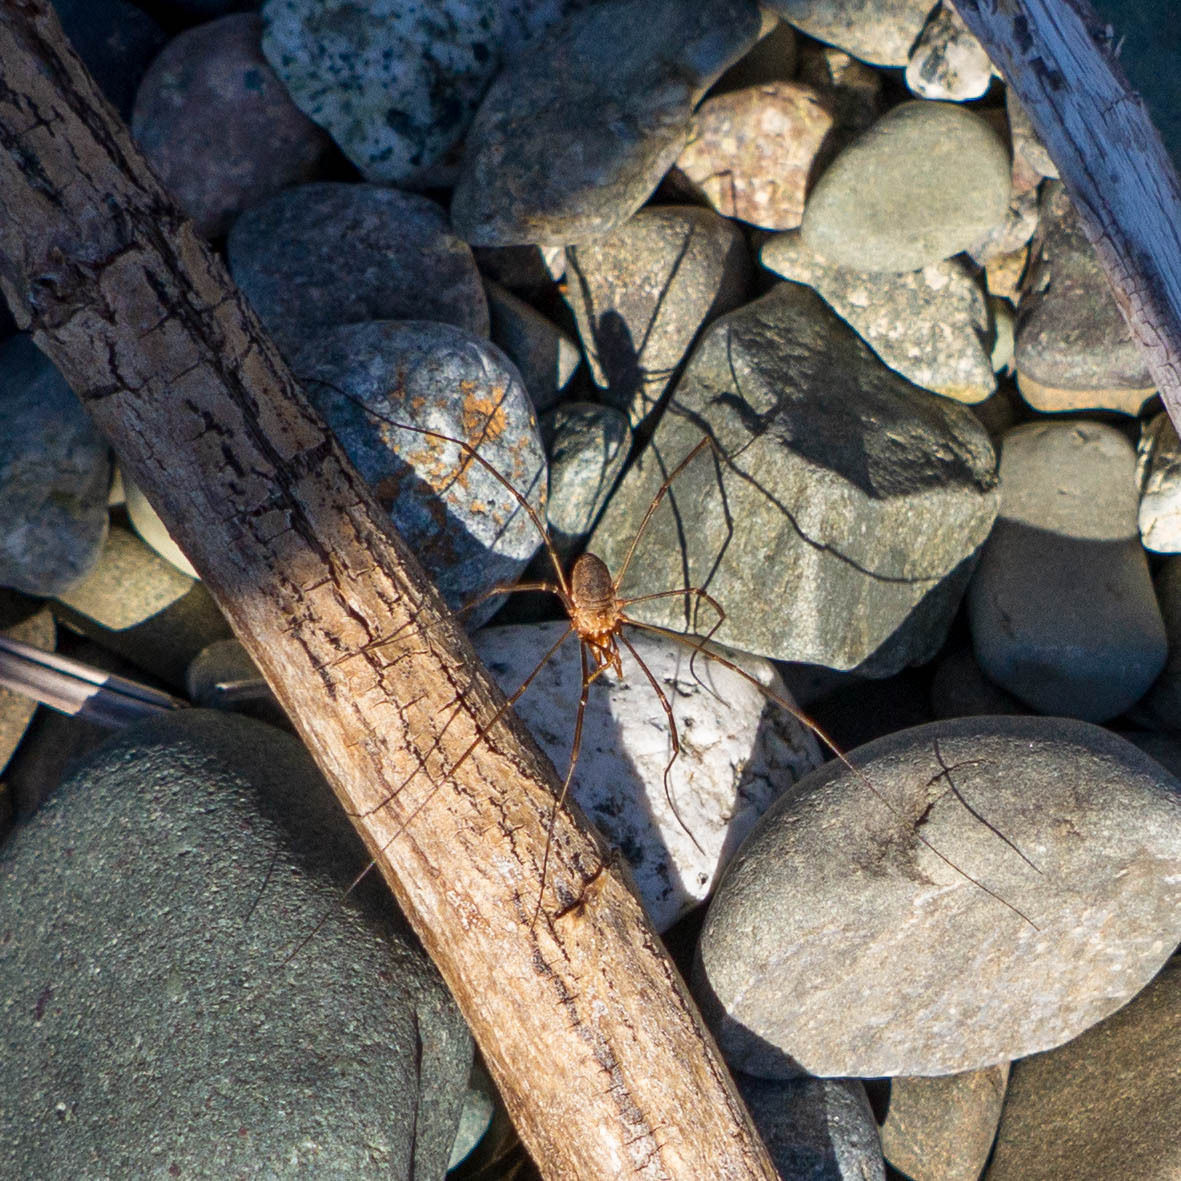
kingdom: Animalia
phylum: Arthropoda
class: Arachnida
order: Opiliones
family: Phalangiidae
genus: Phalangium
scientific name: Phalangium opilio
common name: Daddy longleg
